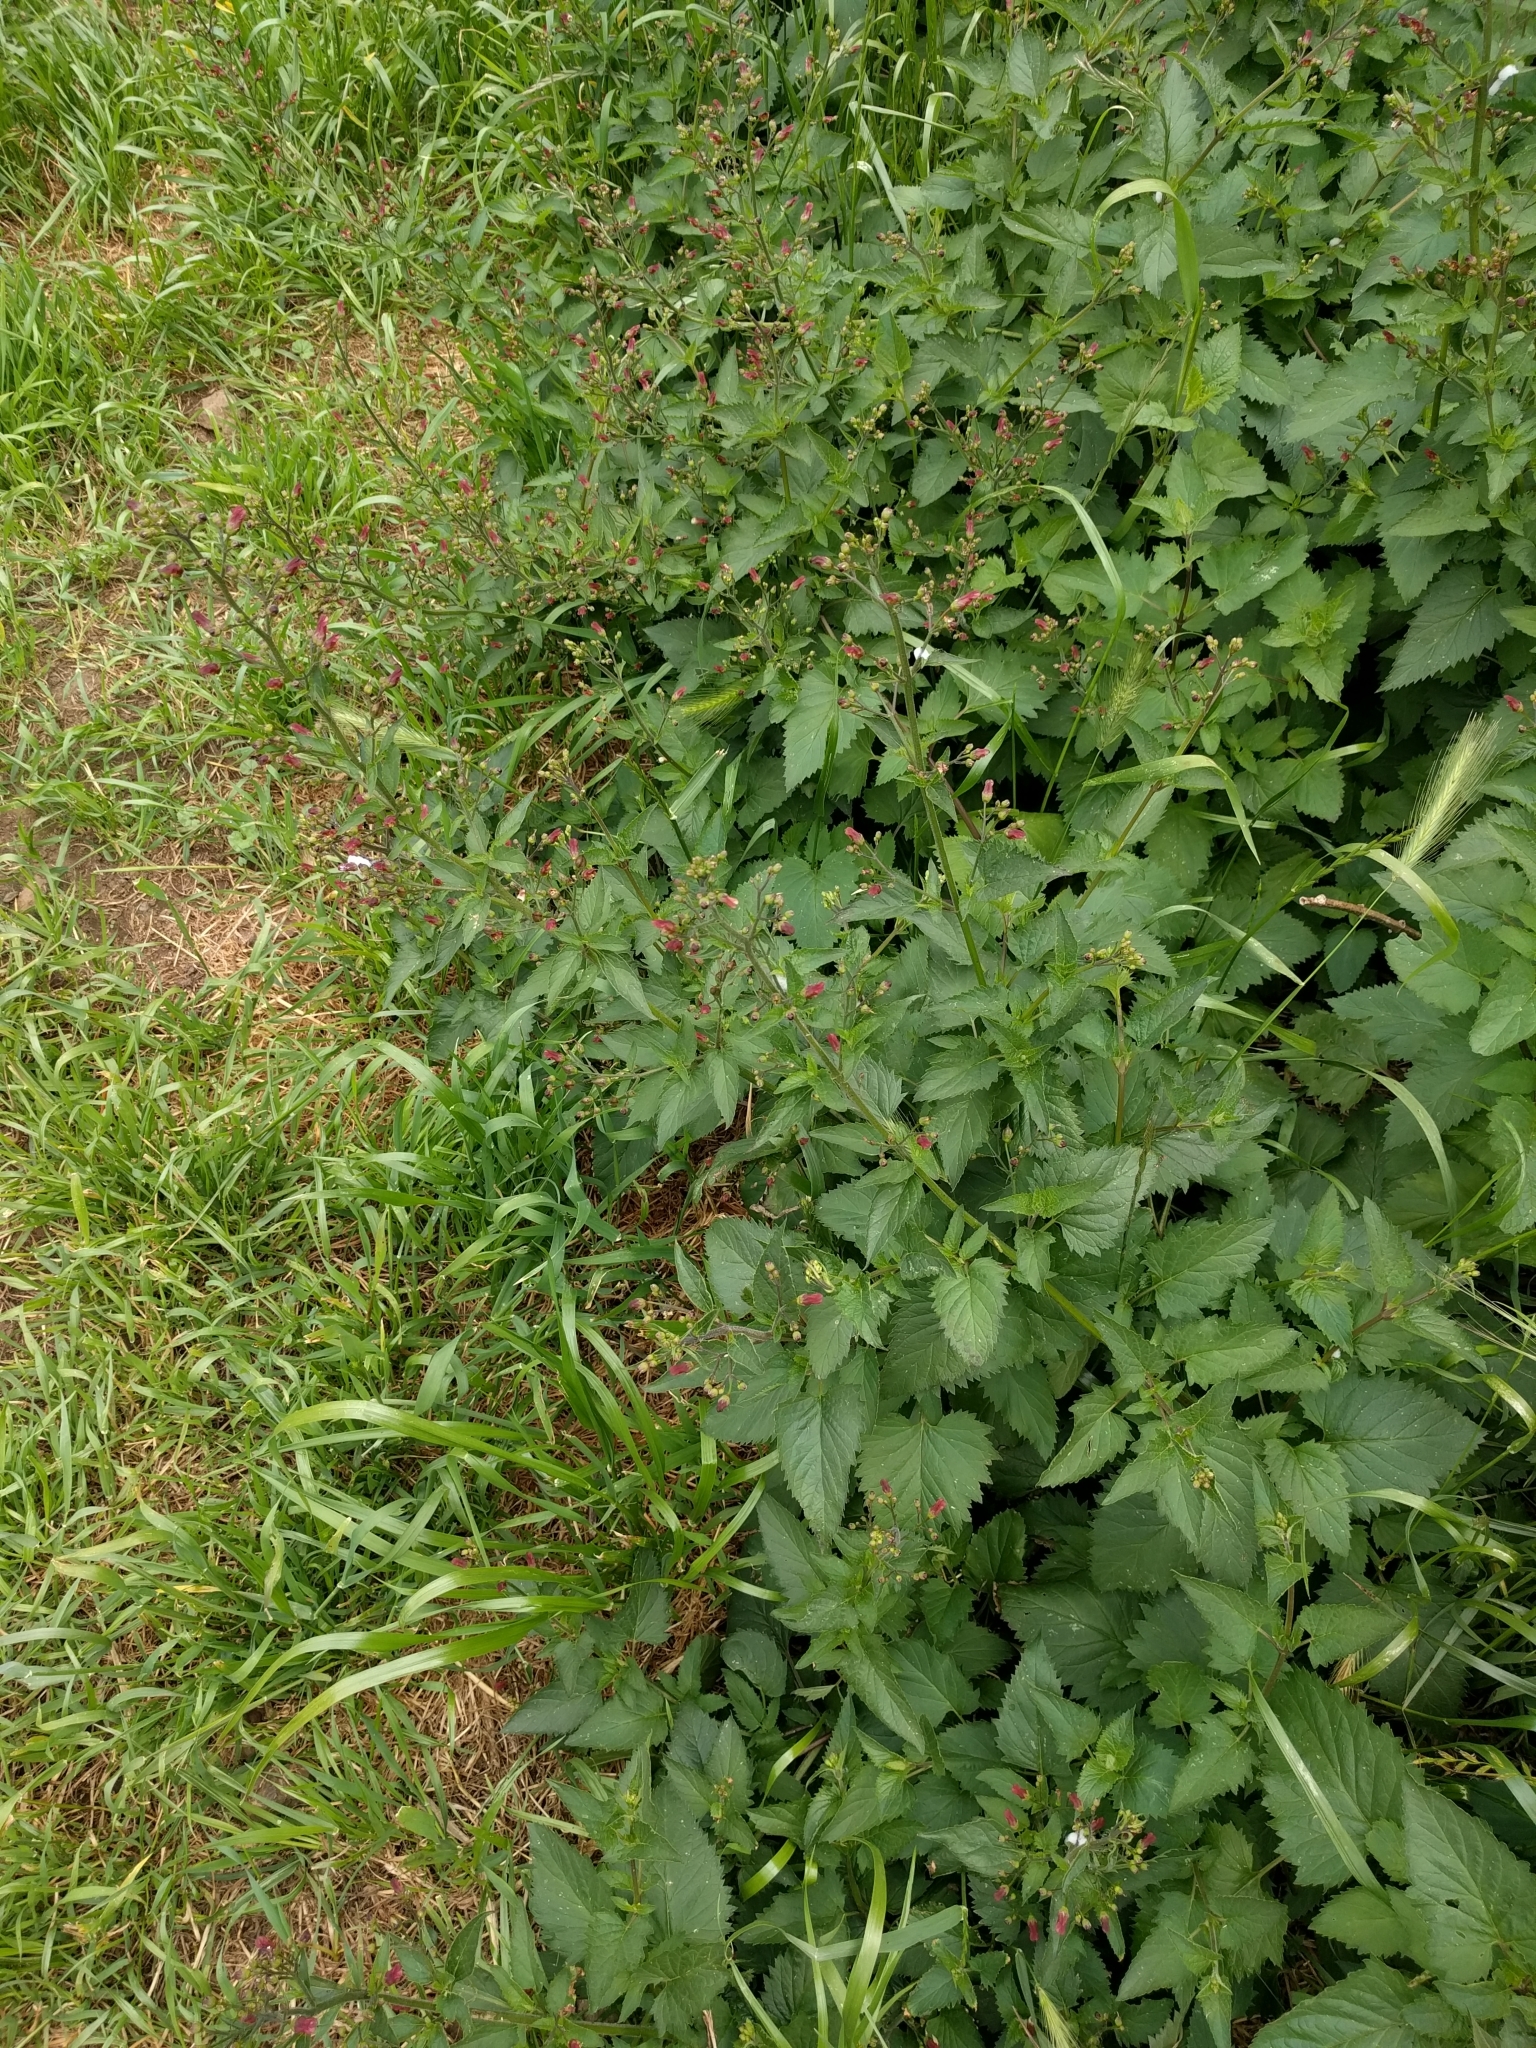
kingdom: Plantae
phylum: Tracheophyta
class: Magnoliopsida
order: Lamiales
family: Scrophulariaceae
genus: Scrophularia
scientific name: Scrophularia californica
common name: California figwort
